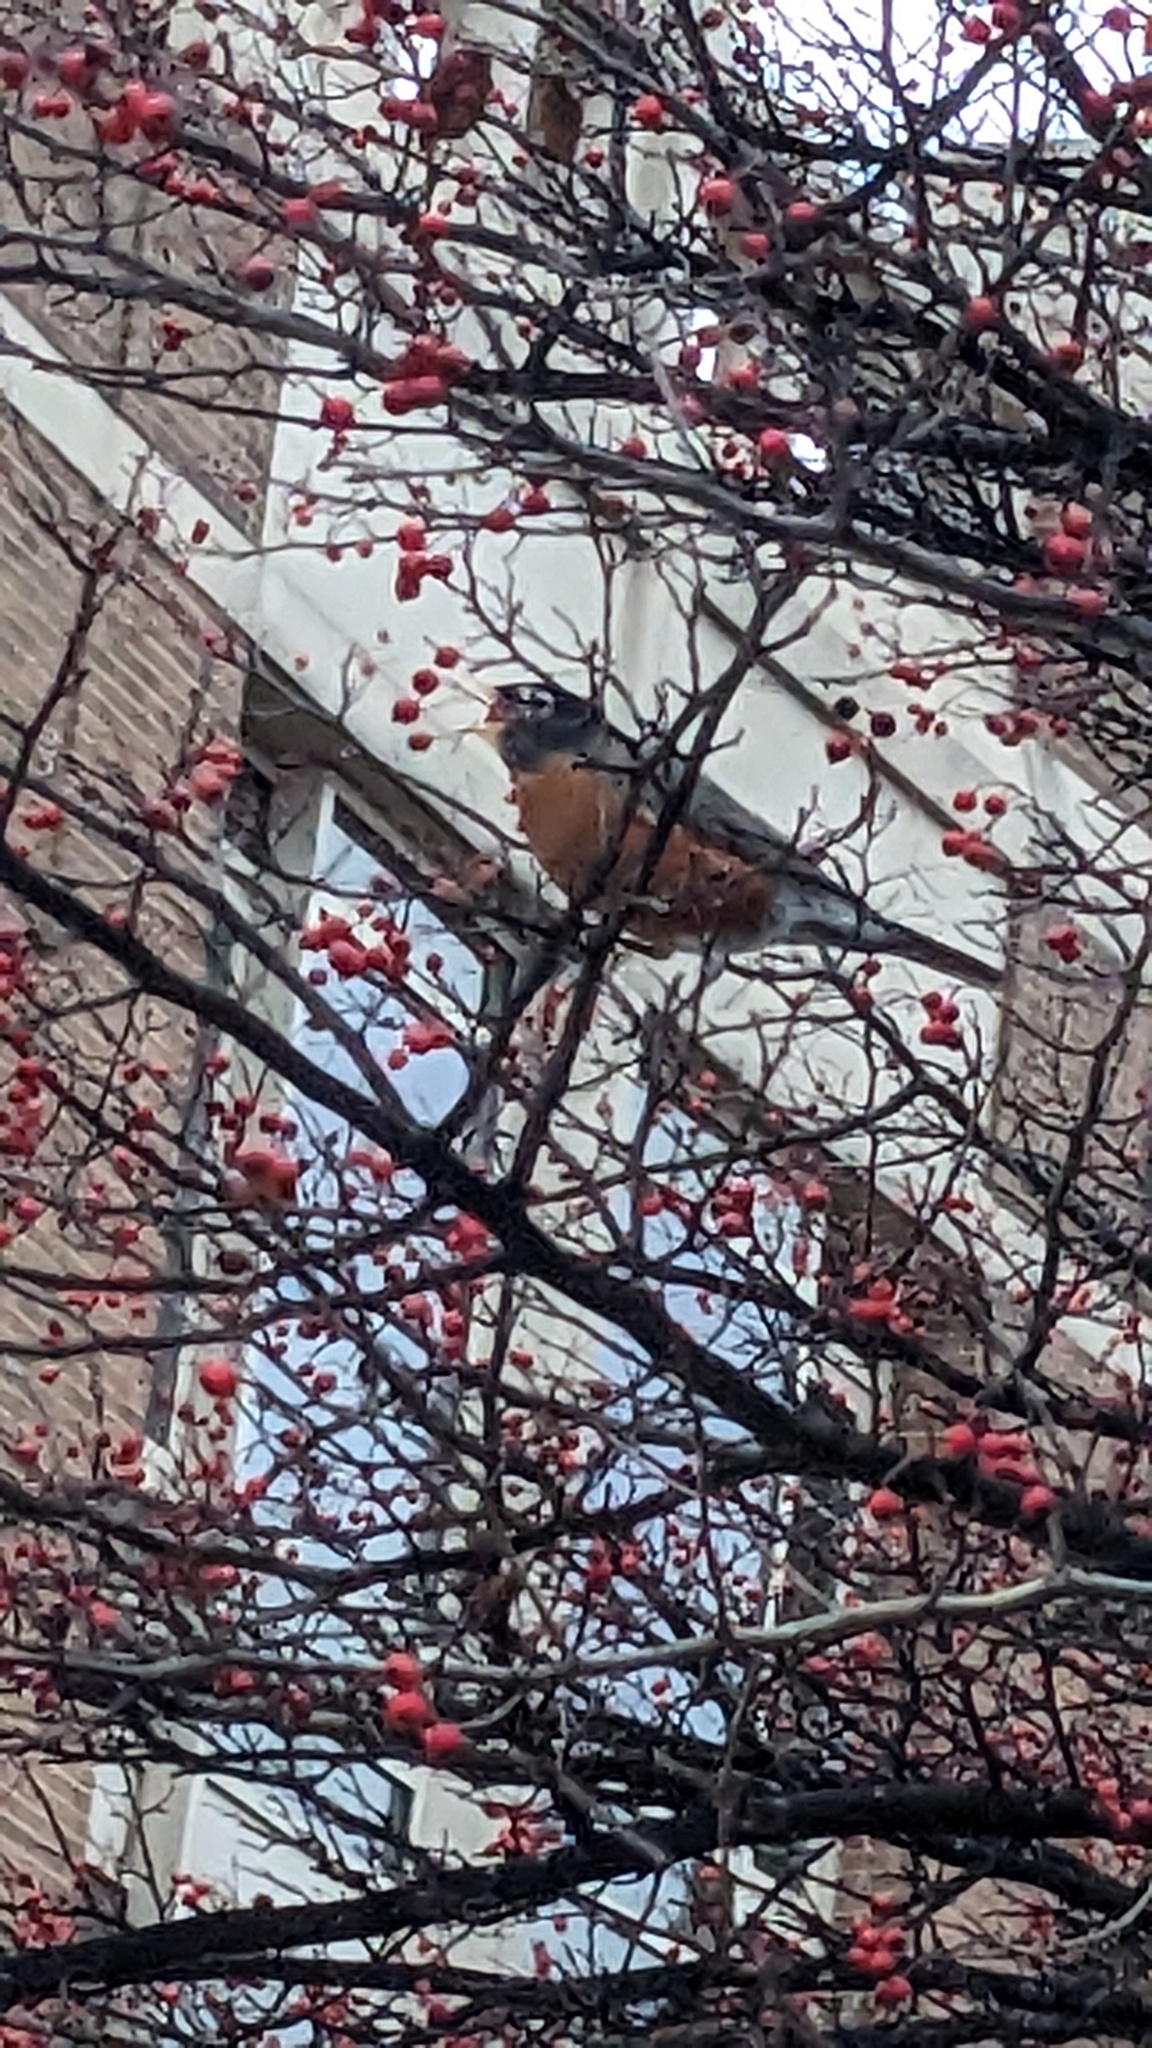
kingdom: Animalia
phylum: Chordata
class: Aves
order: Passeriformes
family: Turdidae
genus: Turdus
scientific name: Turdus migratorius
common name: American robin
